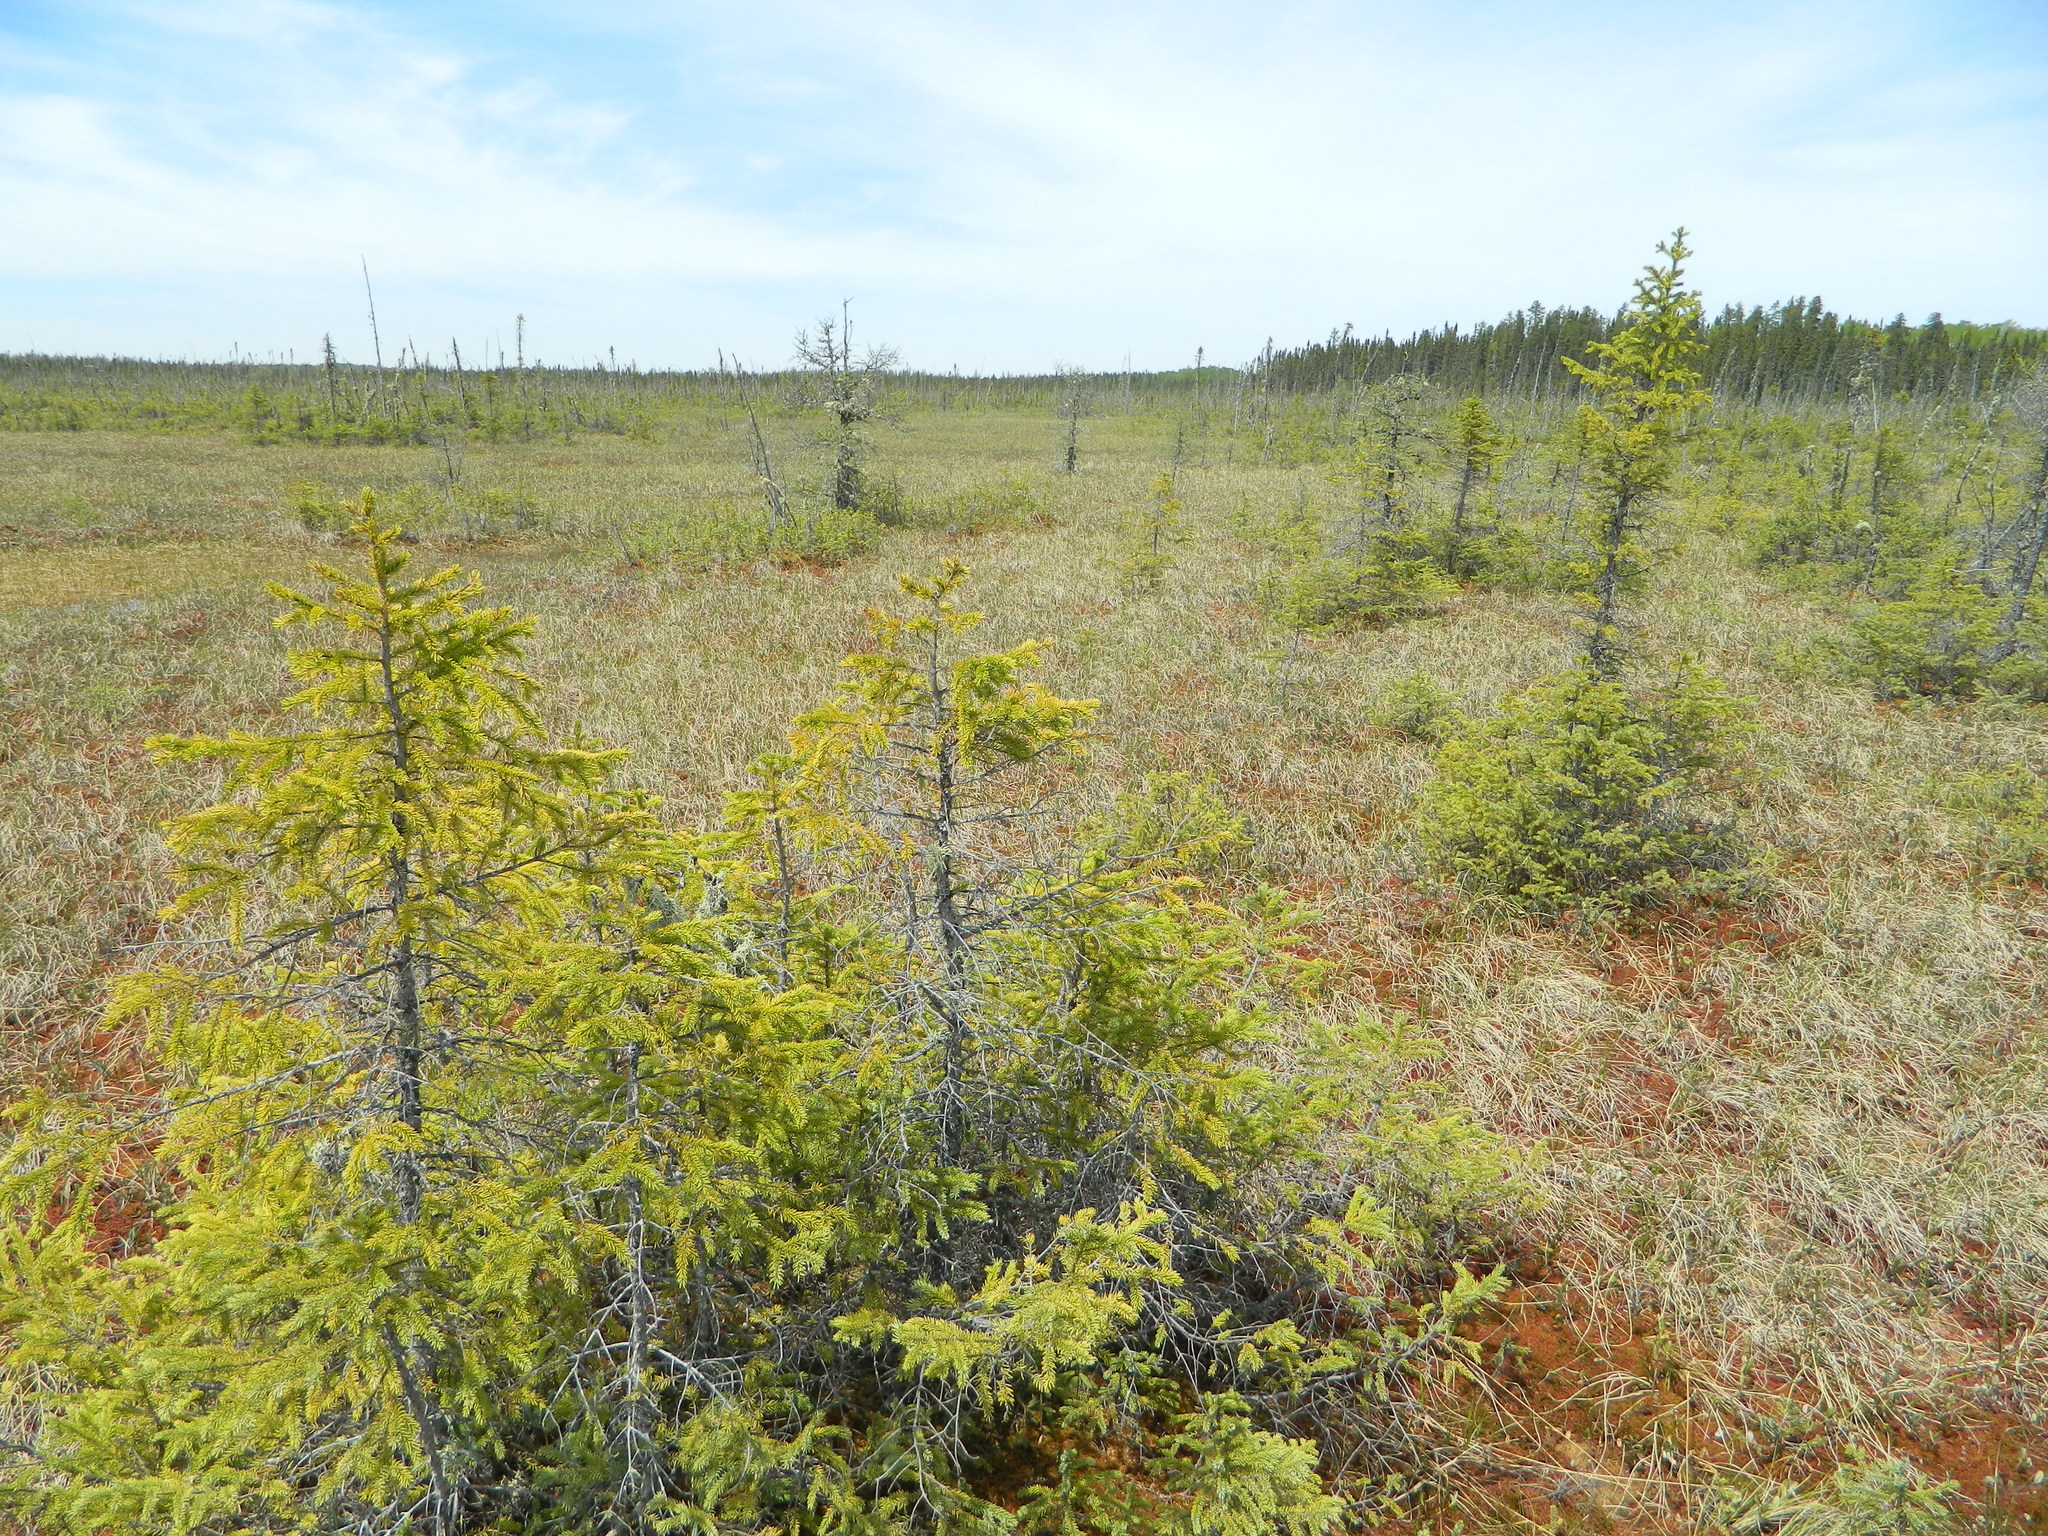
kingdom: Plantae
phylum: Tracheophyta
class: Pinopsida
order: Pinales
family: Pinaceae
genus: Picea
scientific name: Picea mariana
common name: Black spruce
